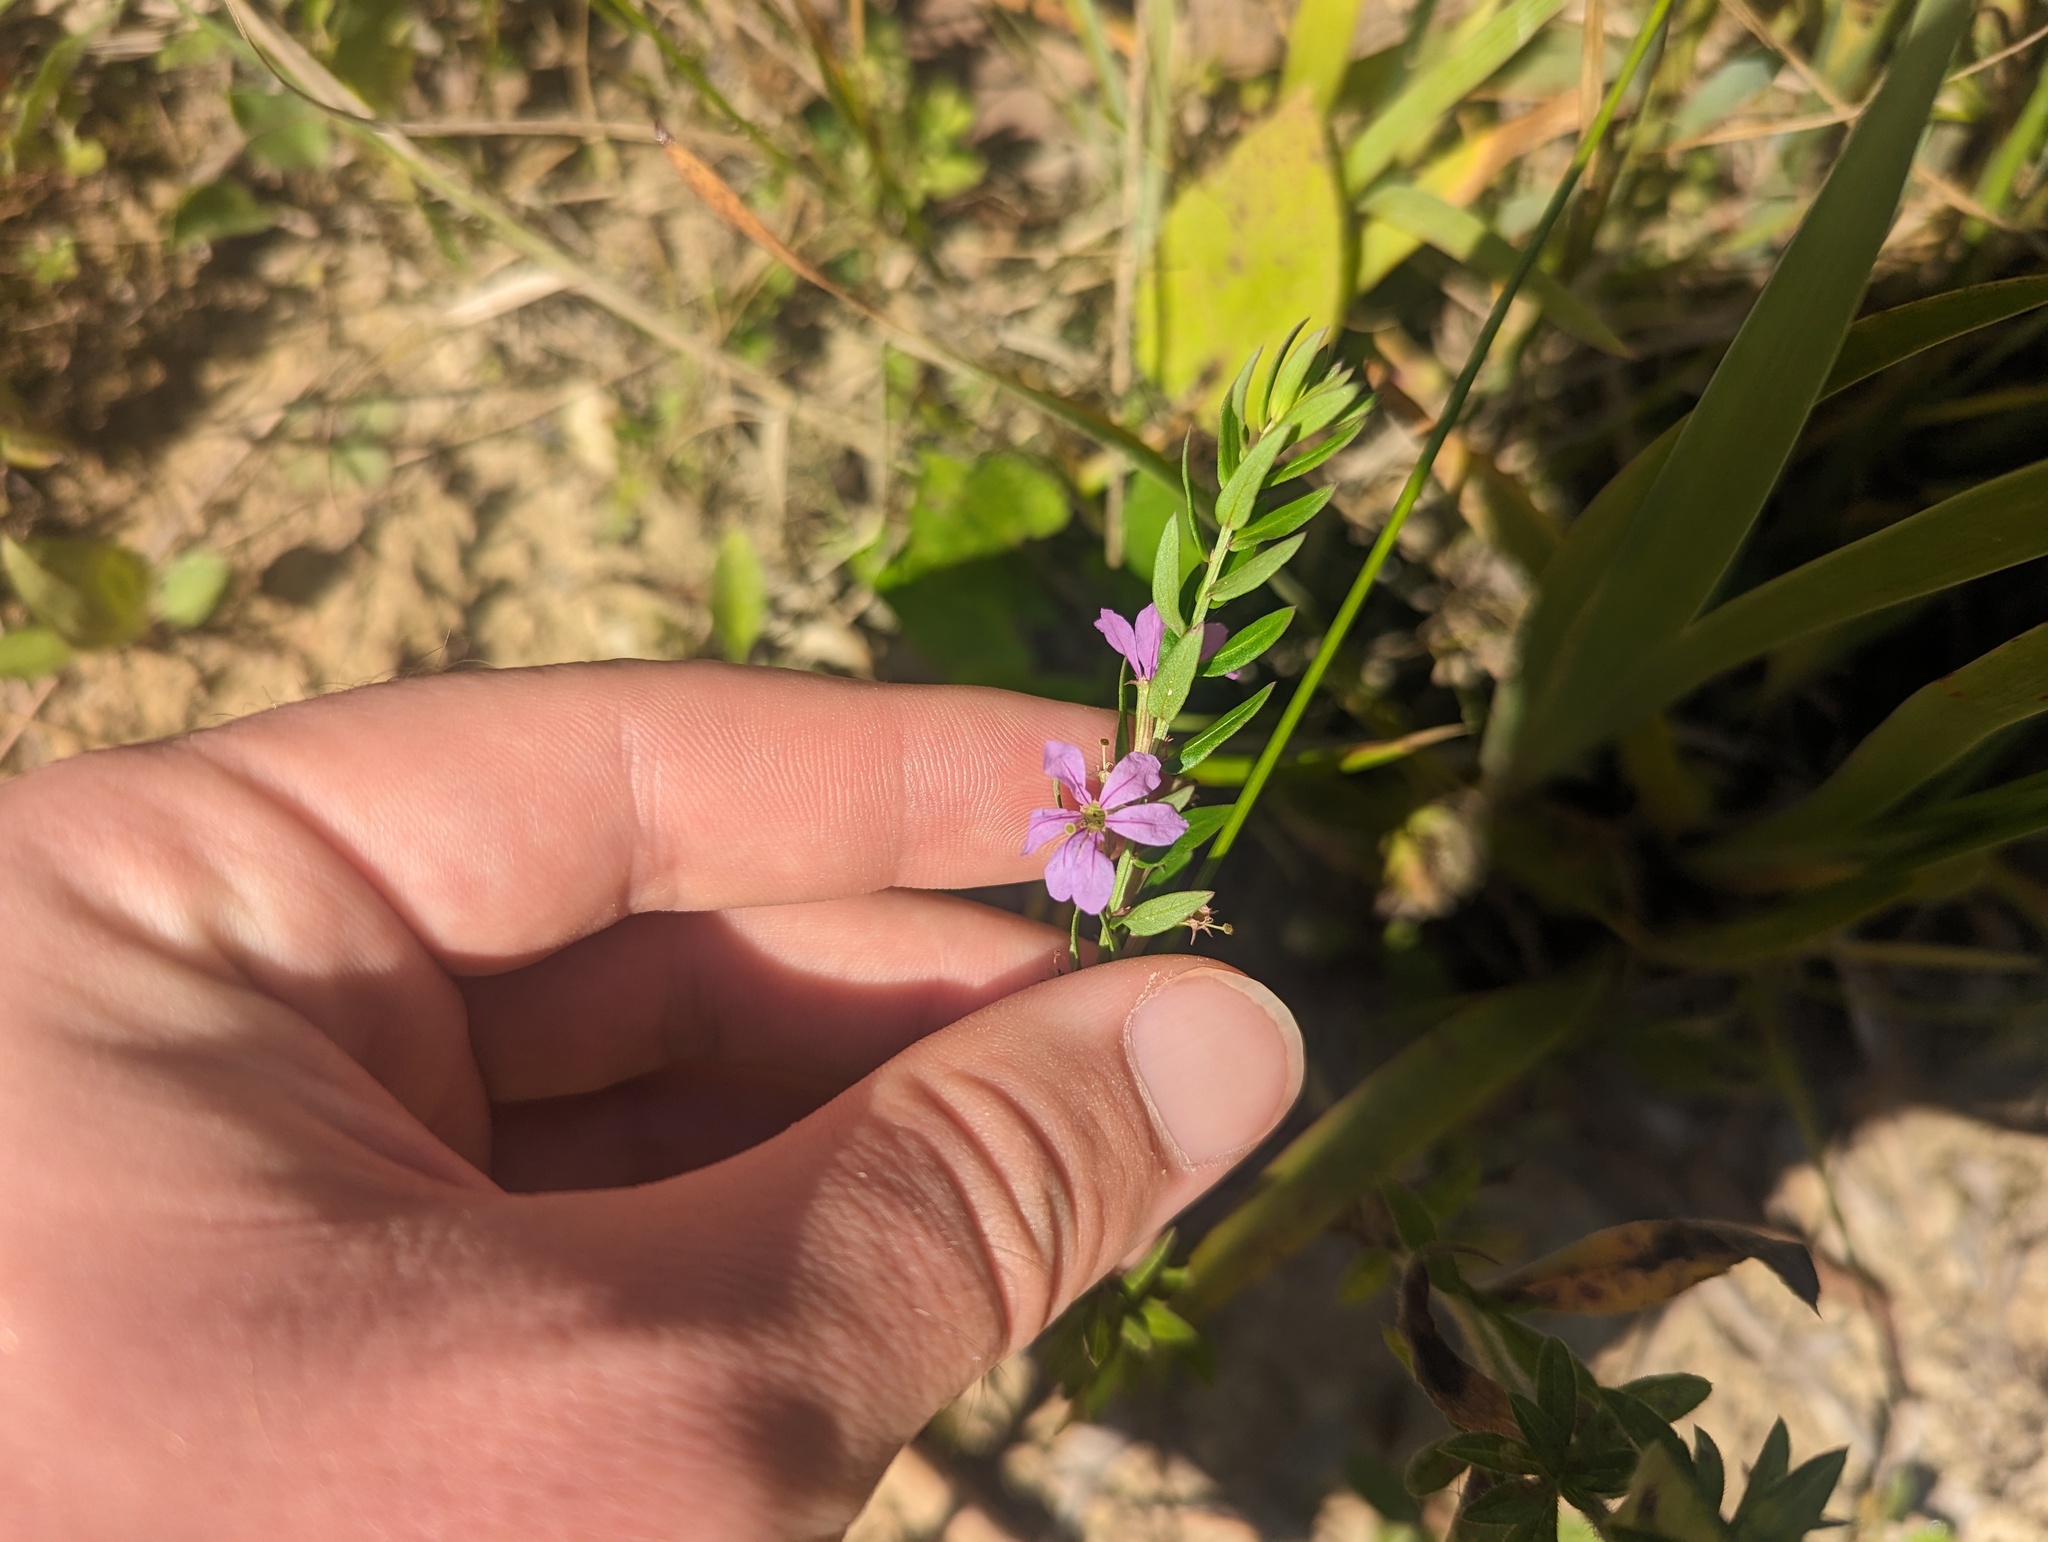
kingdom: Plantae
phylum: Tracheophyta
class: Magnoliopsida
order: Myrtales
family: Lythraceae
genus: Lythrum
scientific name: Lythrum alatum
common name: Winged loosestrife
